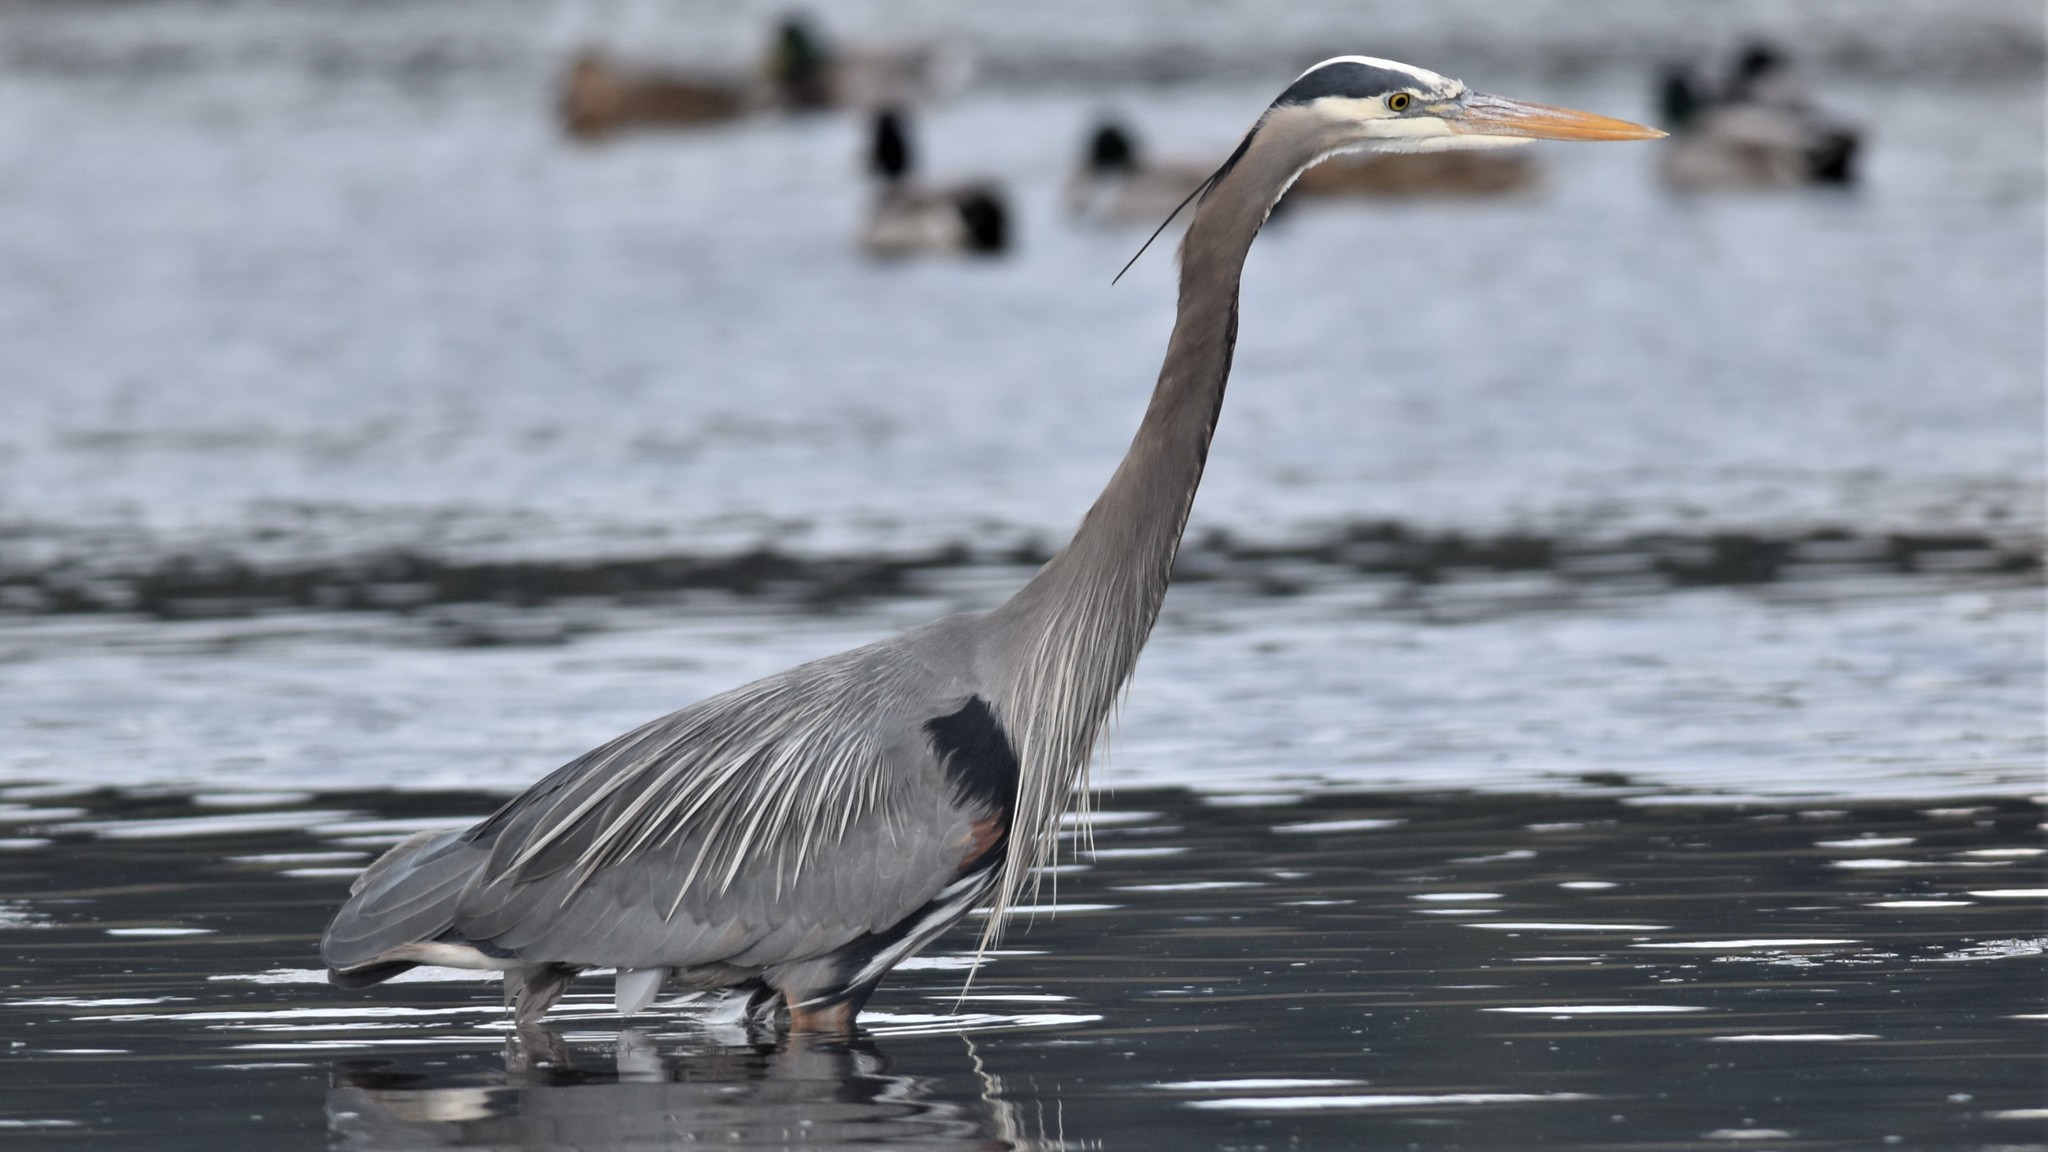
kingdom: Animalia
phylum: Chordata
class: Aves
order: Pelecaniformes
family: Ardeidae
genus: Ardea
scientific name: Ardea herodias
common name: Great blue heron
